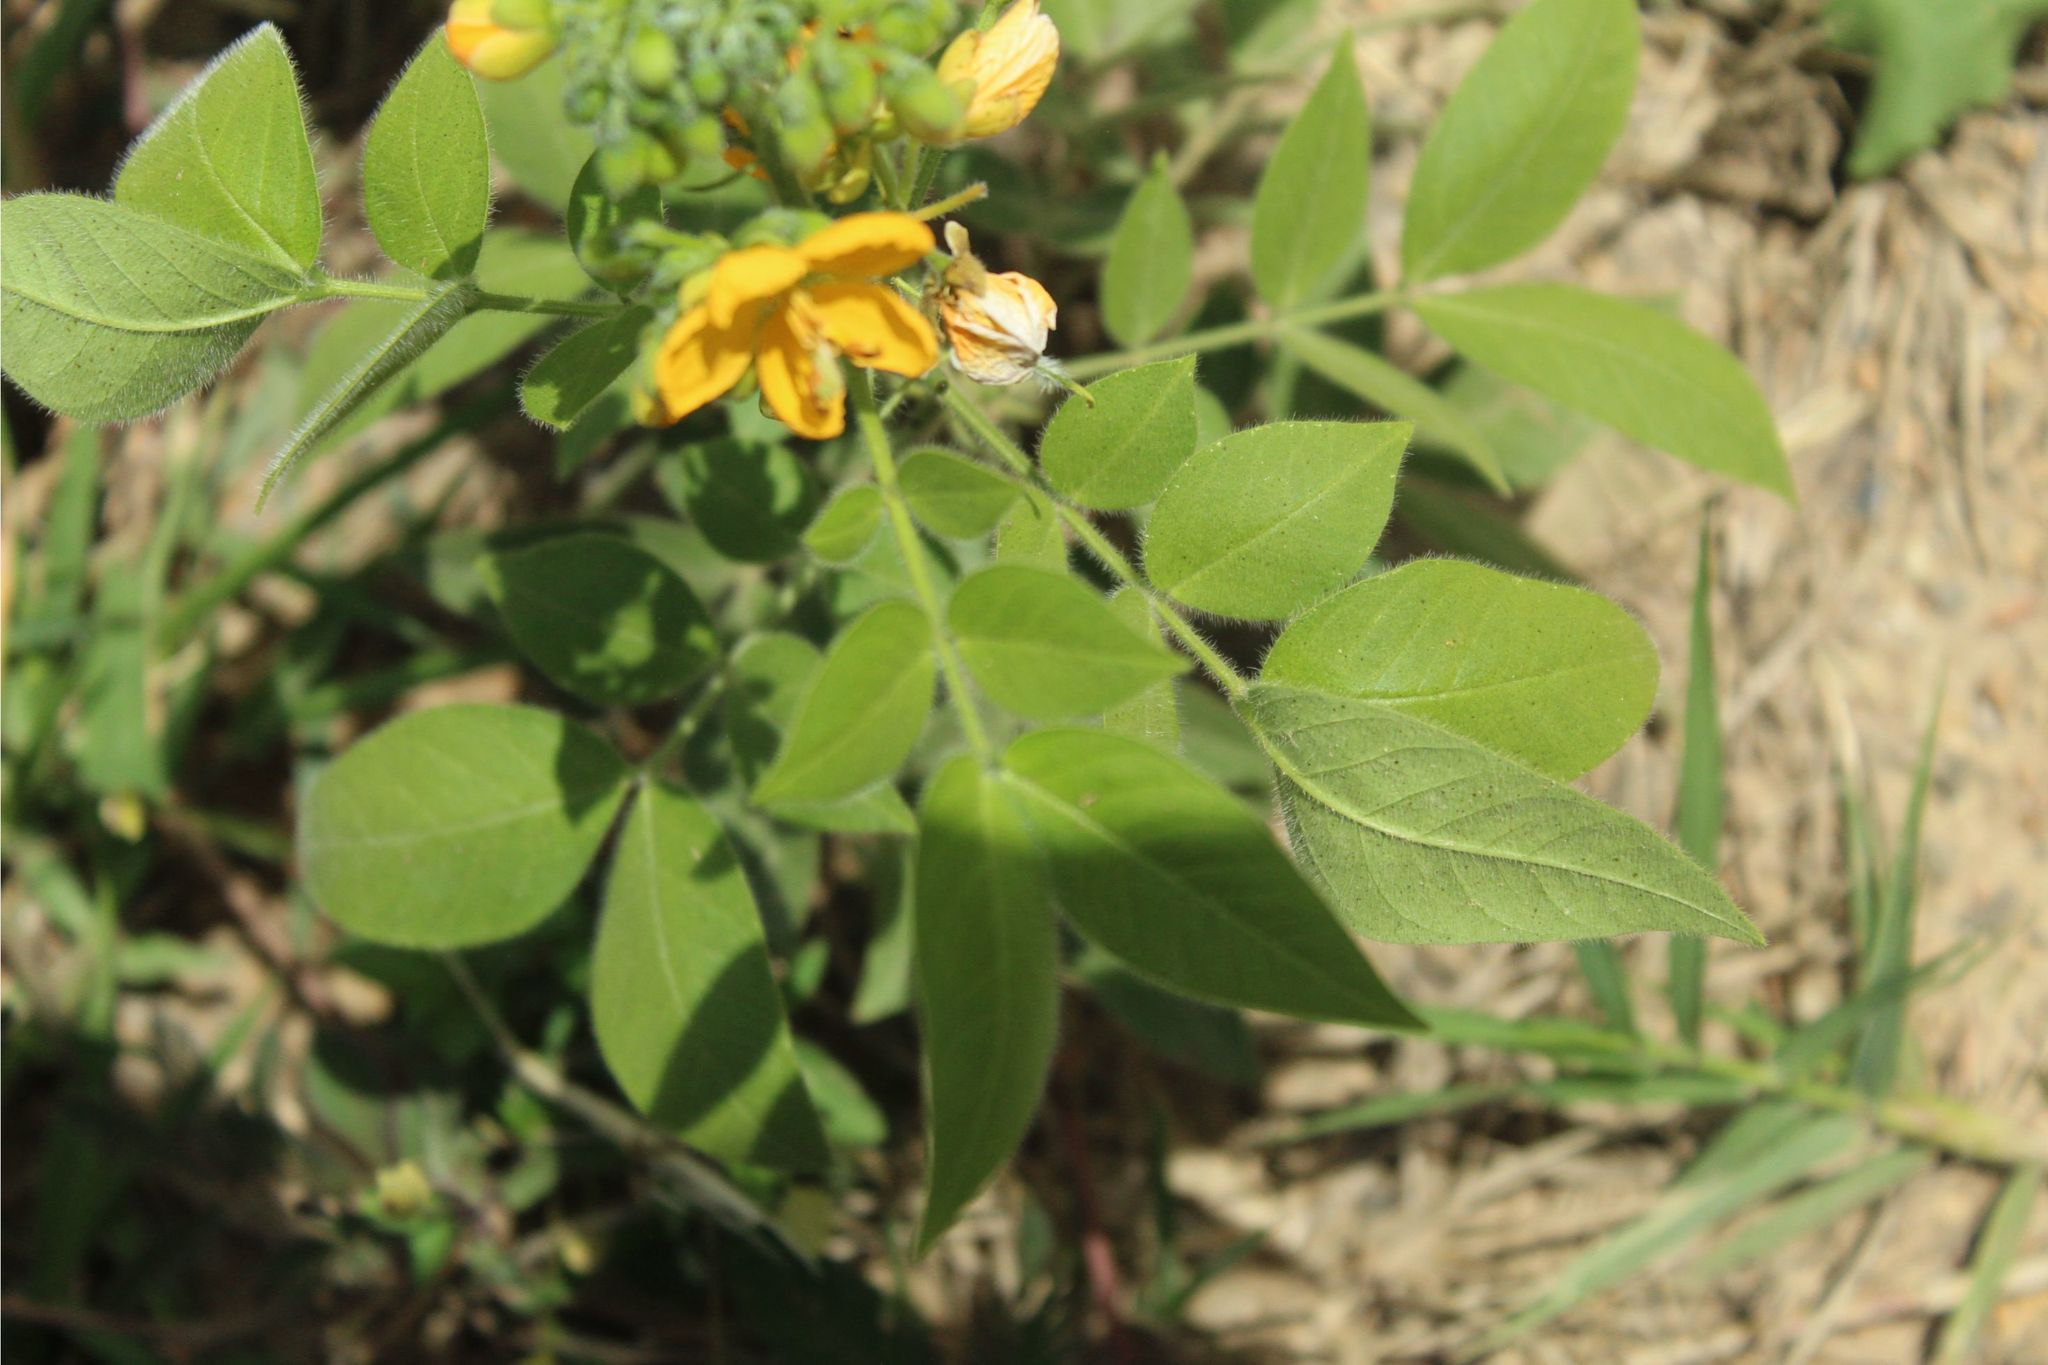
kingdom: Plantae
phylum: Tracheophyta
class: Magnoliopsida
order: Fabales
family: Fabaceae
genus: Senna
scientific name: Senna hirsuta
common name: Woolly senna
